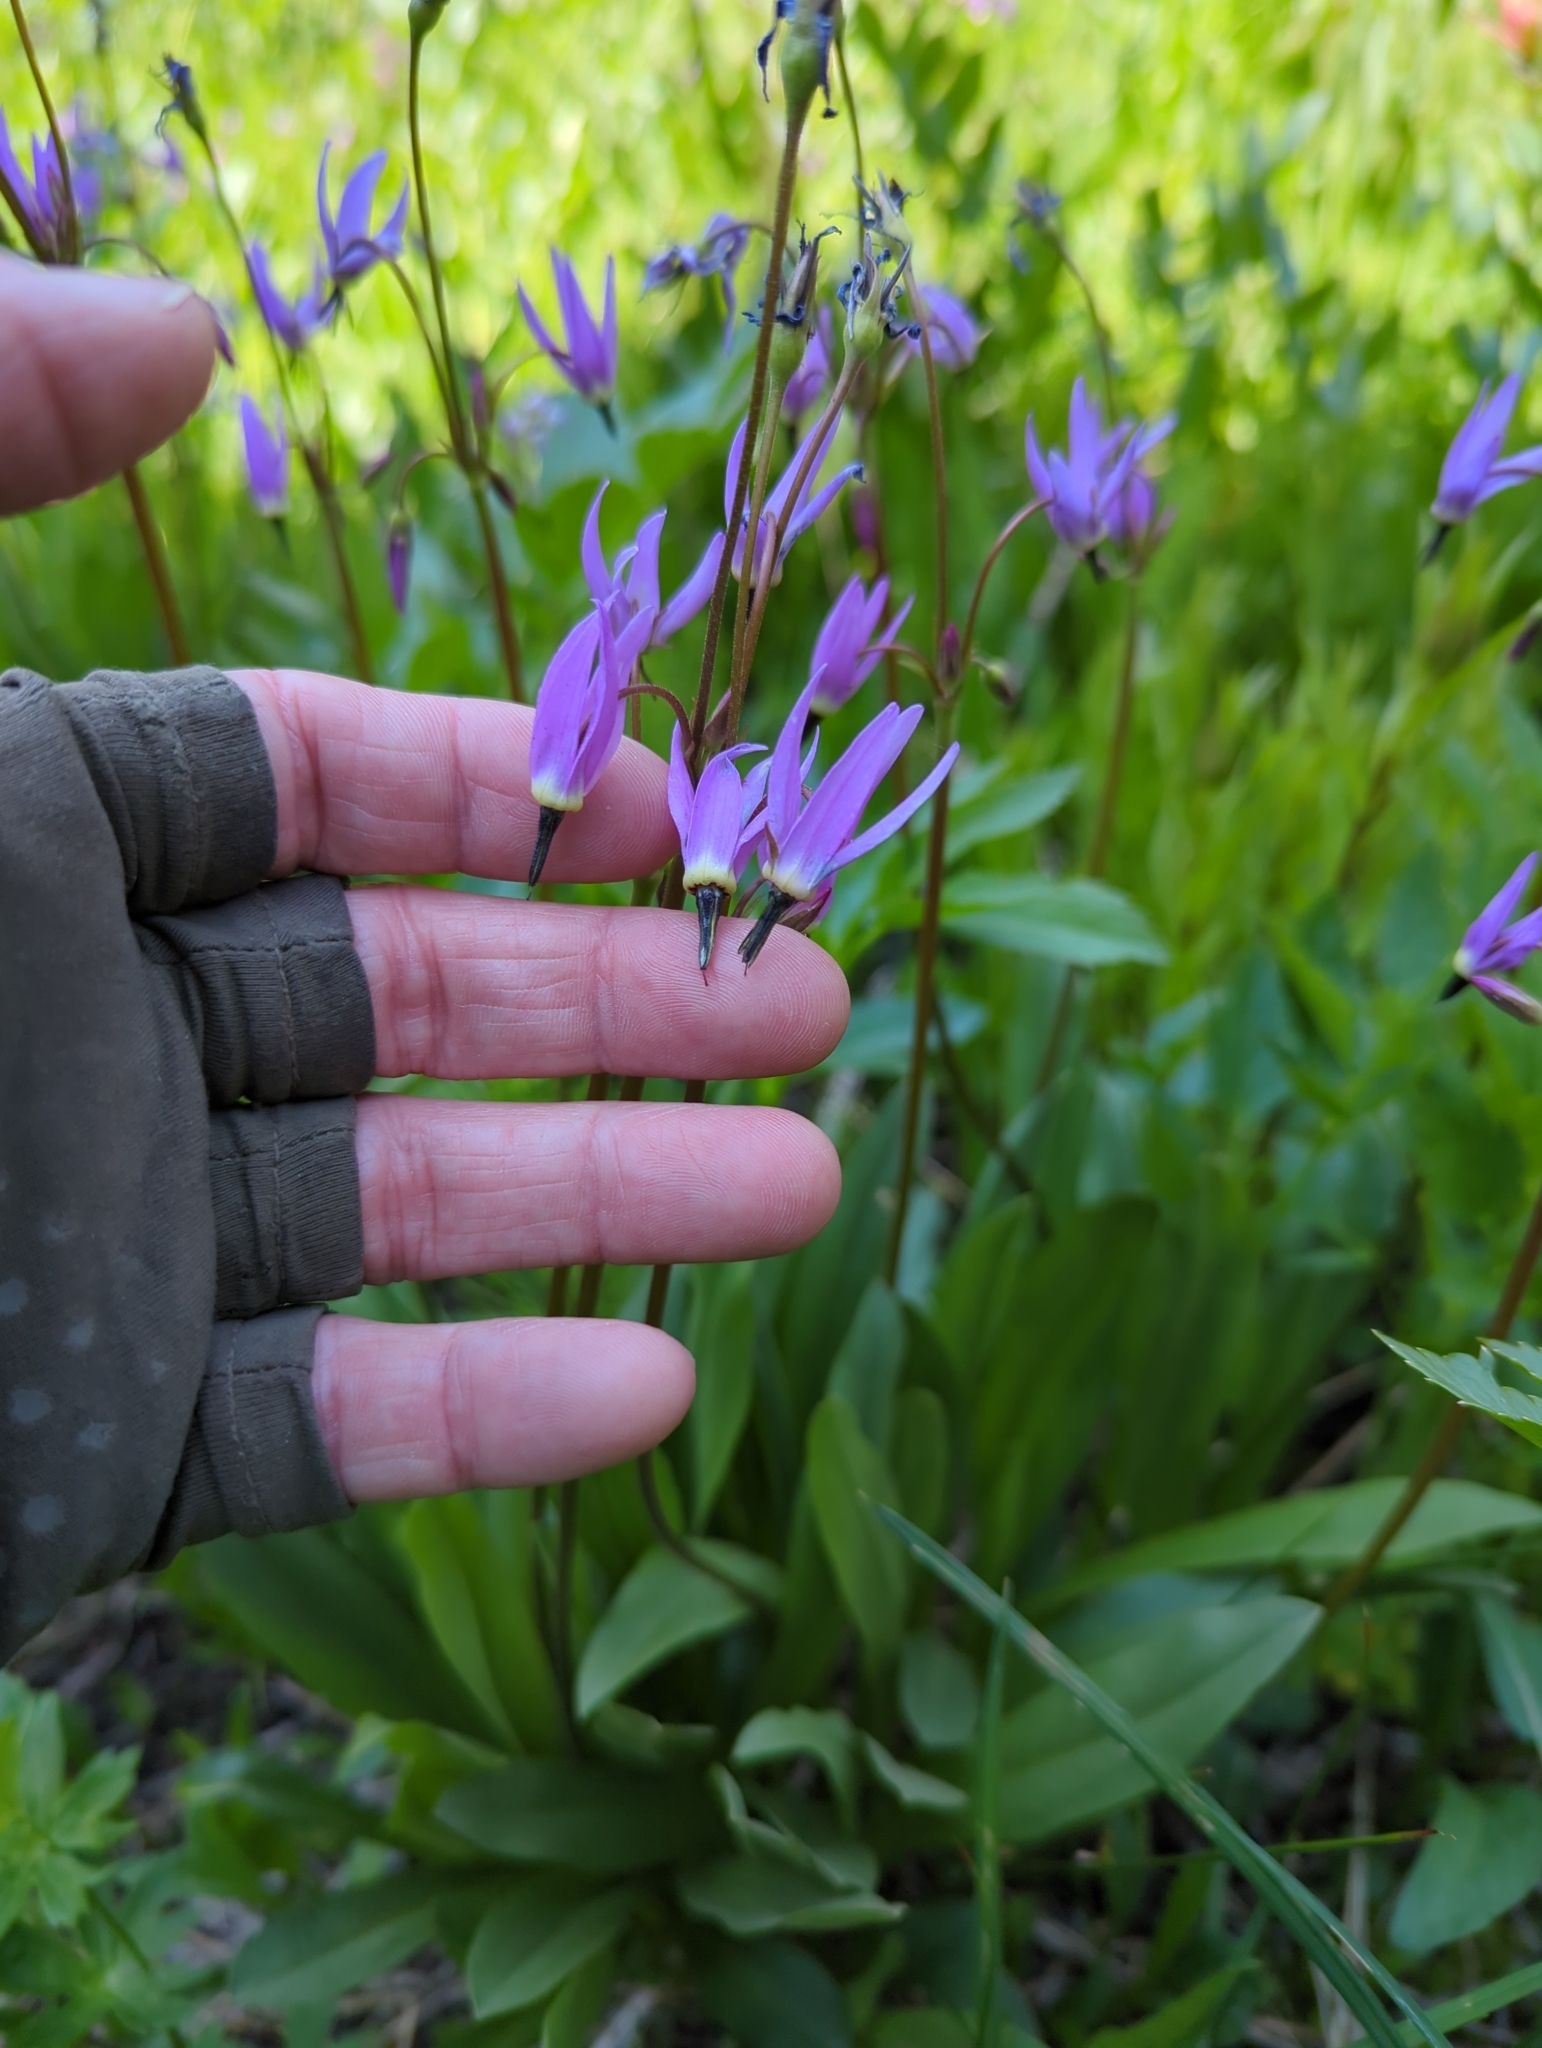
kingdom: Plantae
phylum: Tracheophyta
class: Magnoliopsida
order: Ericales
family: Primulaceae
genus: Dodecatheon
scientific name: Dodecatheon jeffreyanum
